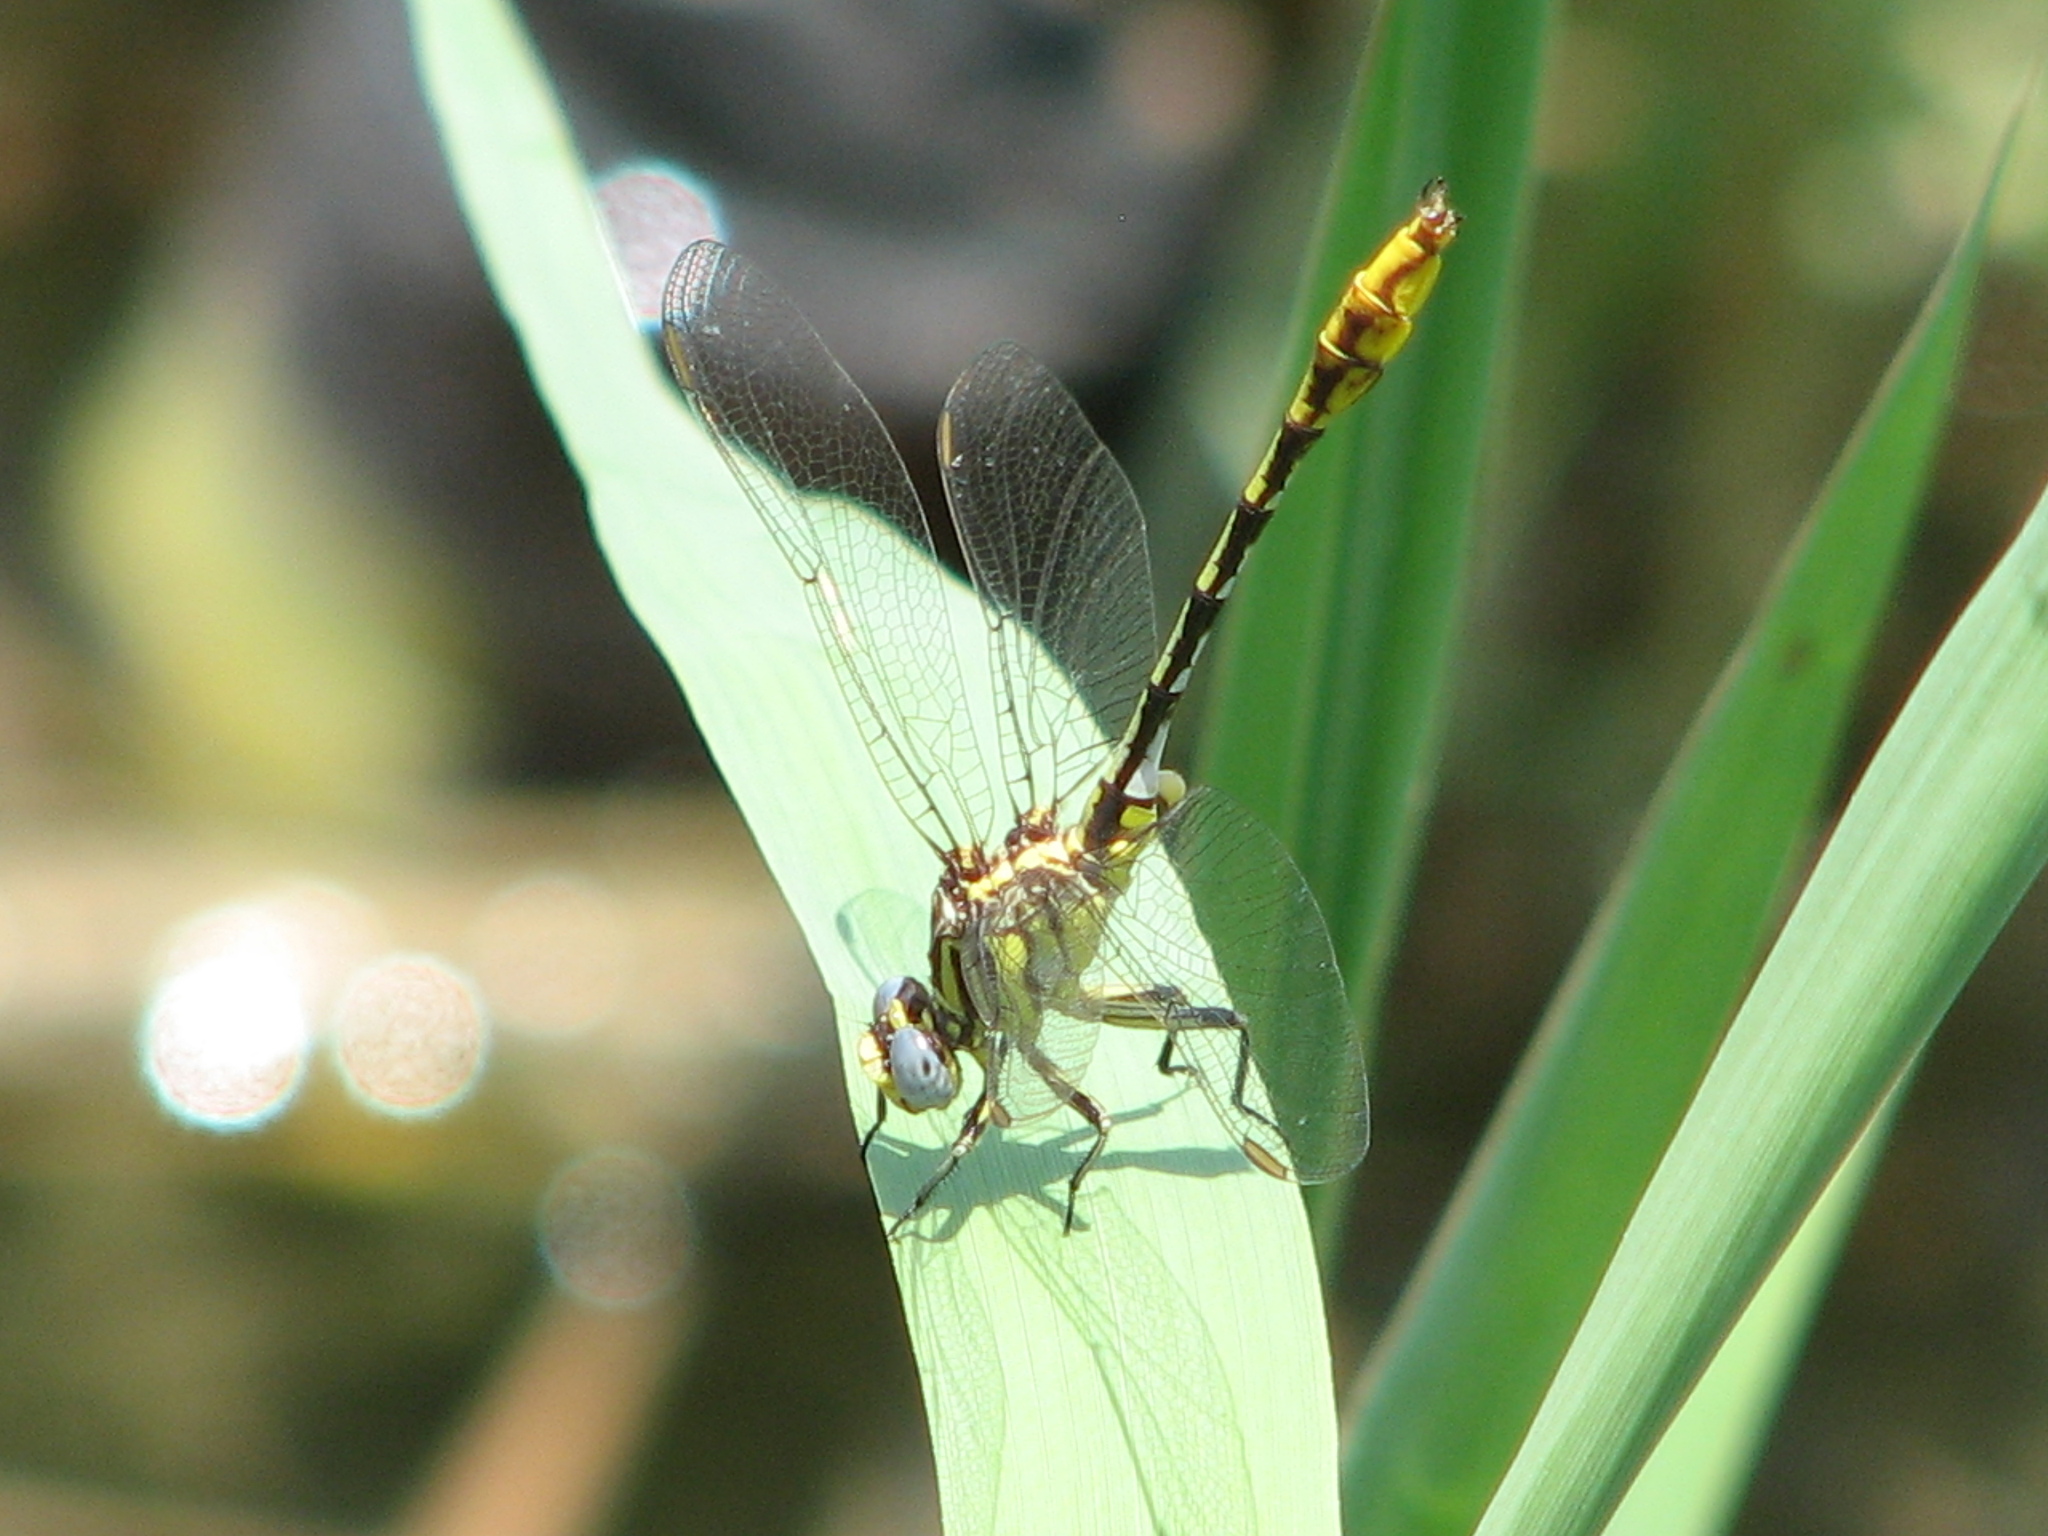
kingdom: Animalia
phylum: Arthropoda
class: Insecta
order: Odonata
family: Gomphidae
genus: Phanogomphus
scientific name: Phanogomphus militaris
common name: Sulphur-tipped clubtail
